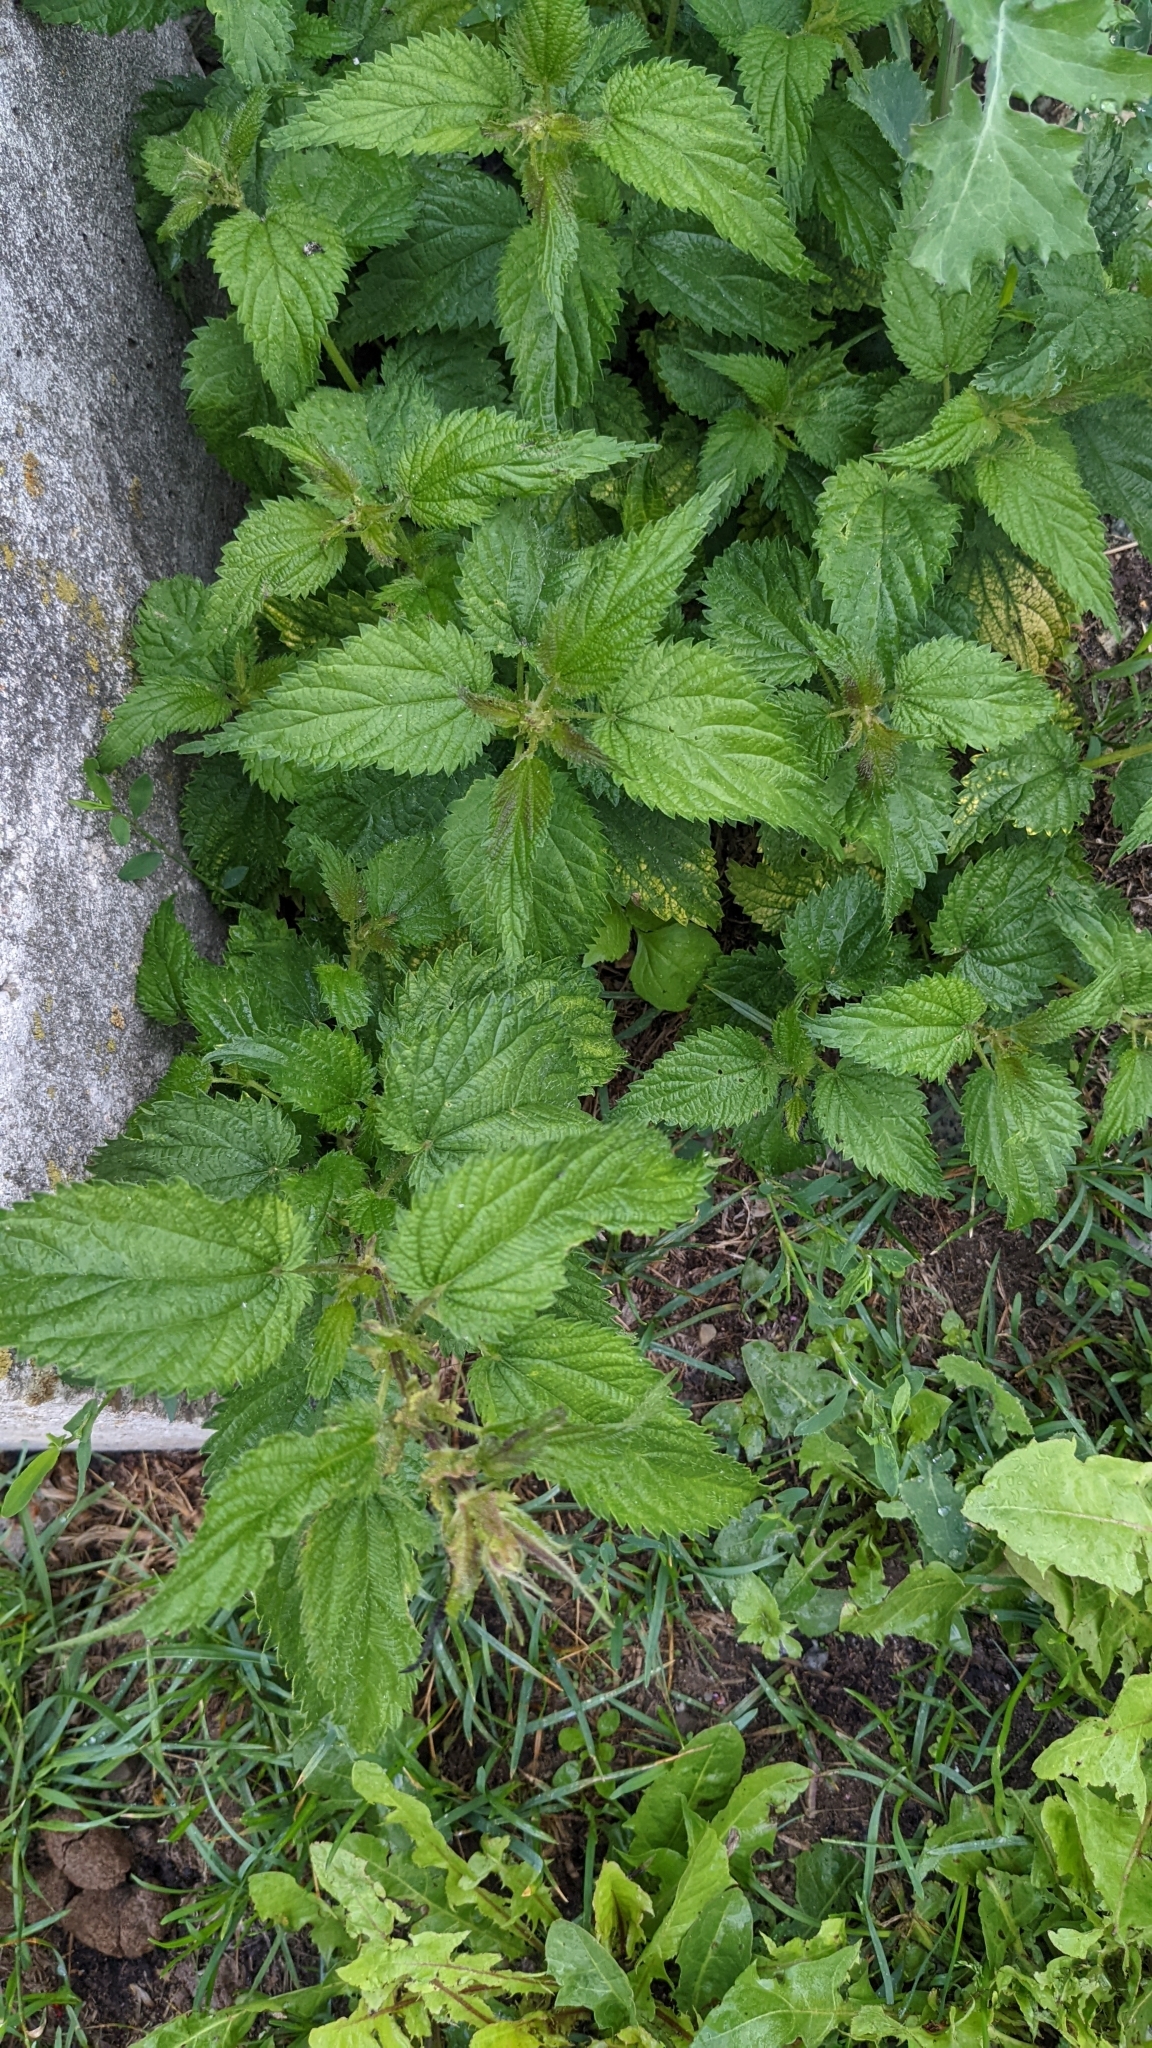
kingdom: Plantae
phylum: Tracheophyta
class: Magnoliopsida
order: Rosales
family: Urticaceae
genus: Urtica
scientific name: Urtica dioica
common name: Common nettle
